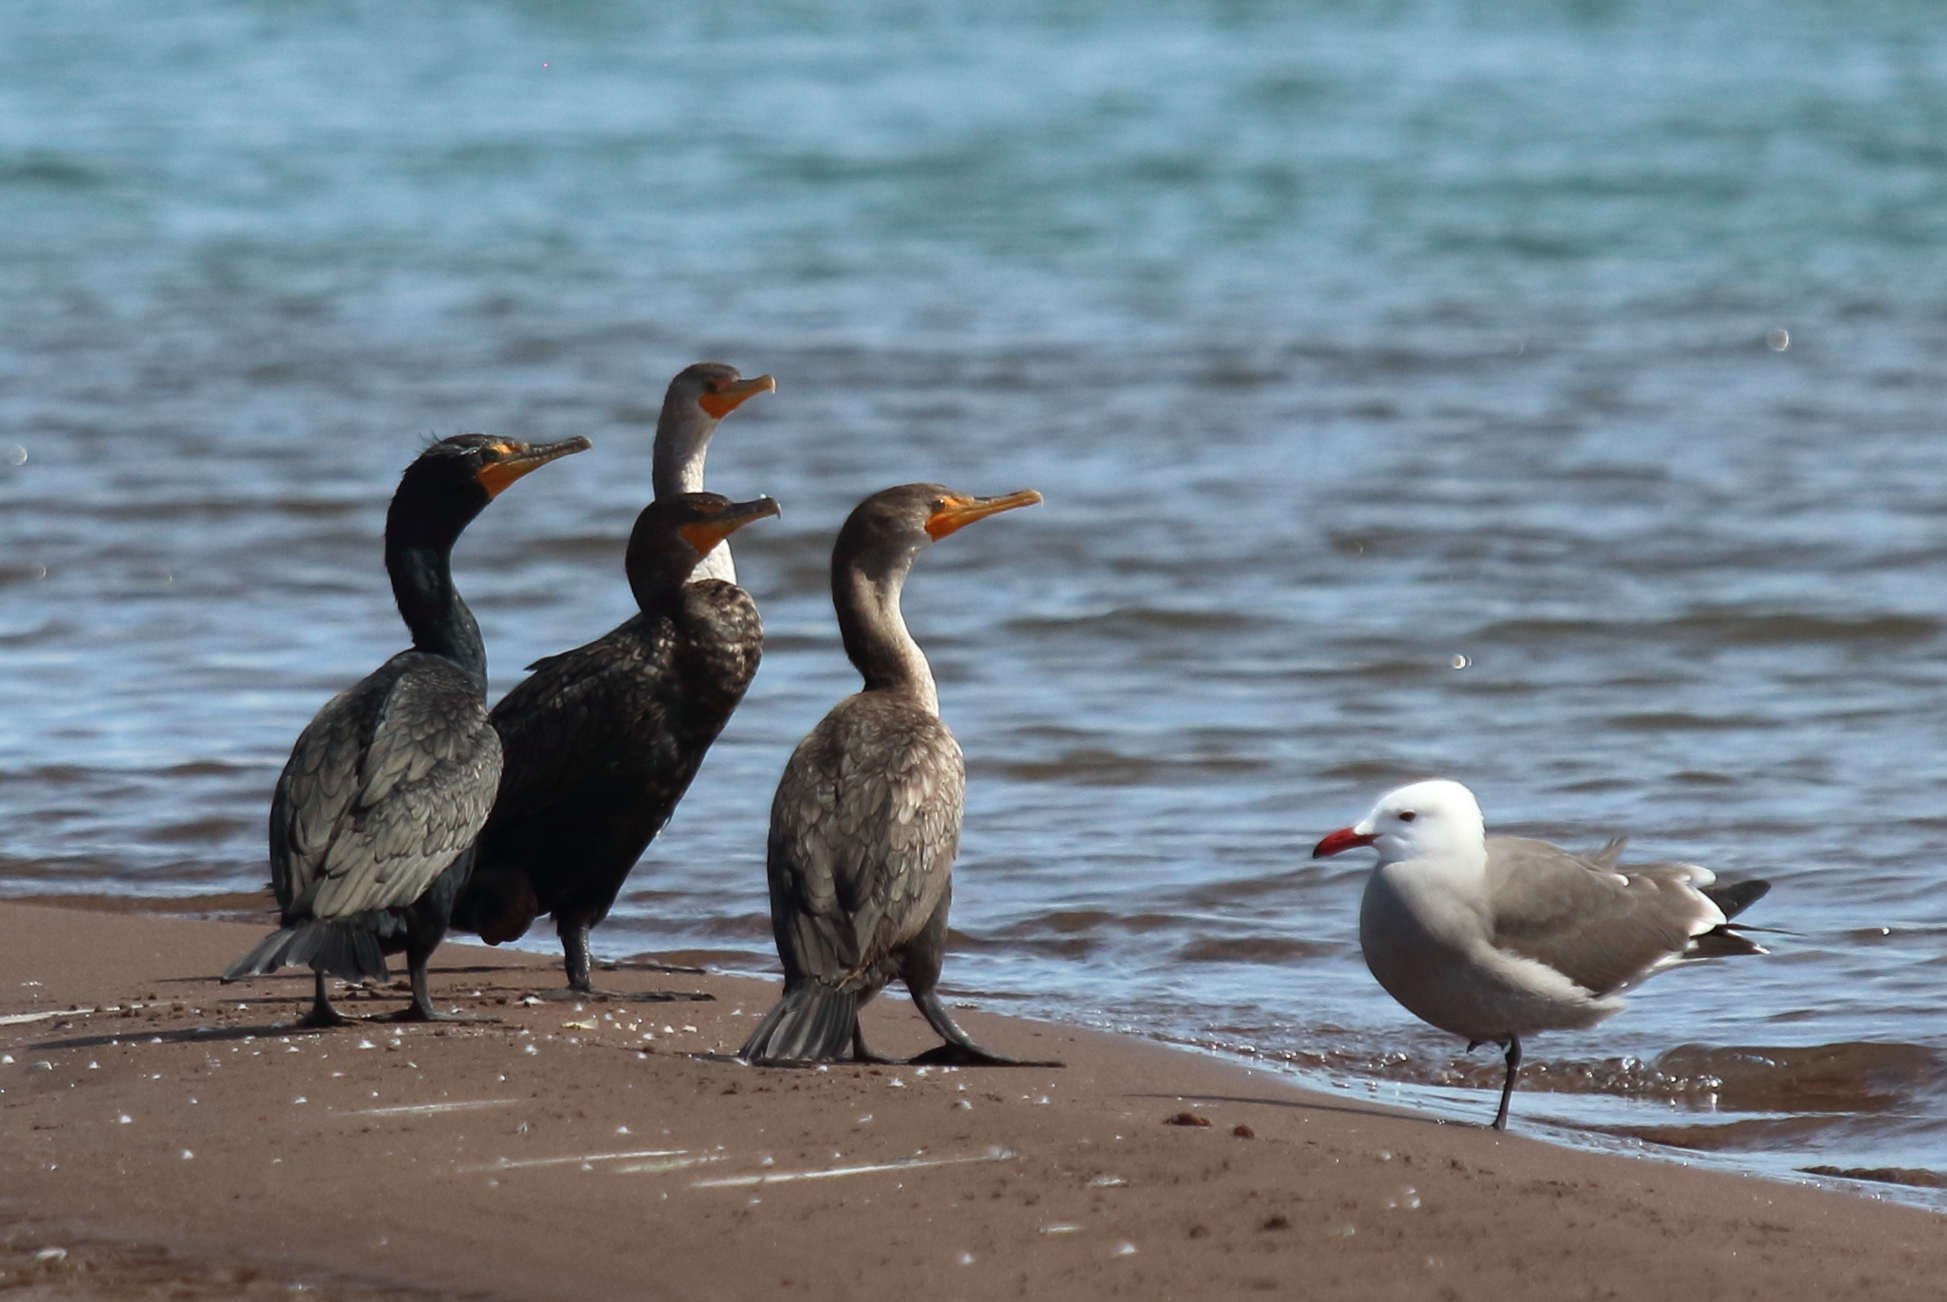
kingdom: Animalia
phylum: Chordata
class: Aves
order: Suliformes
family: Phalacrocoracidae
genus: Phalacrocorax
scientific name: Phalacrocorax auritus
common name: Double-crested cormorant
